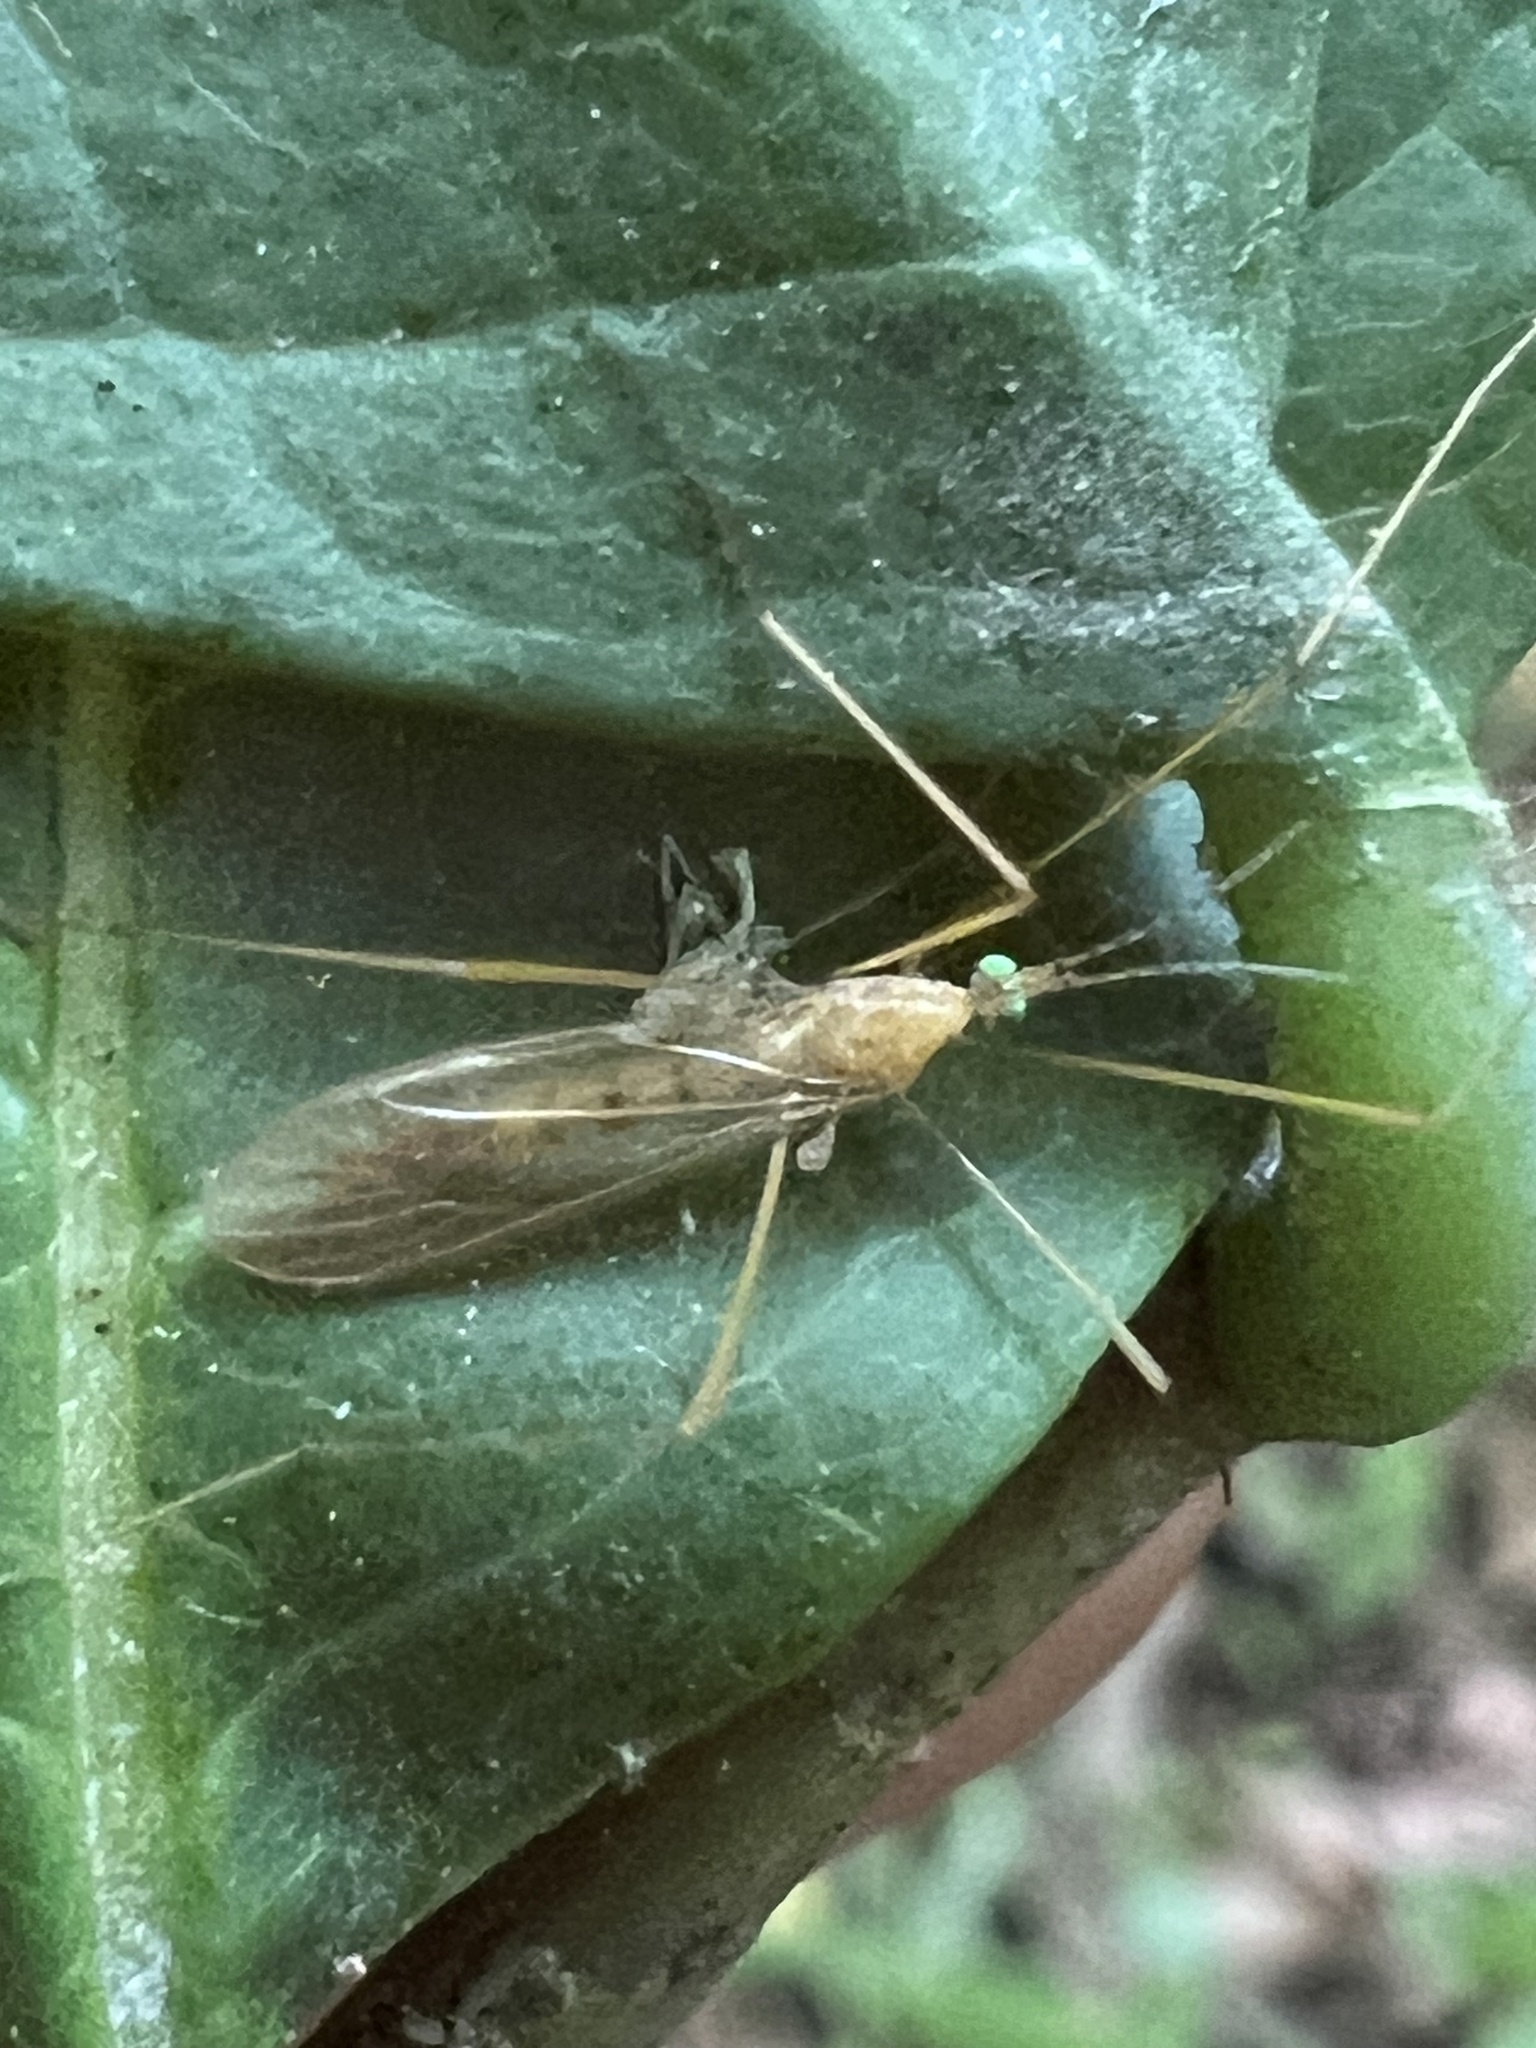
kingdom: Animalia
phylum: Arthropoda
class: Insecta
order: Diptera
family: Limoniidae
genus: Atarba
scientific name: Atarba picticornis
